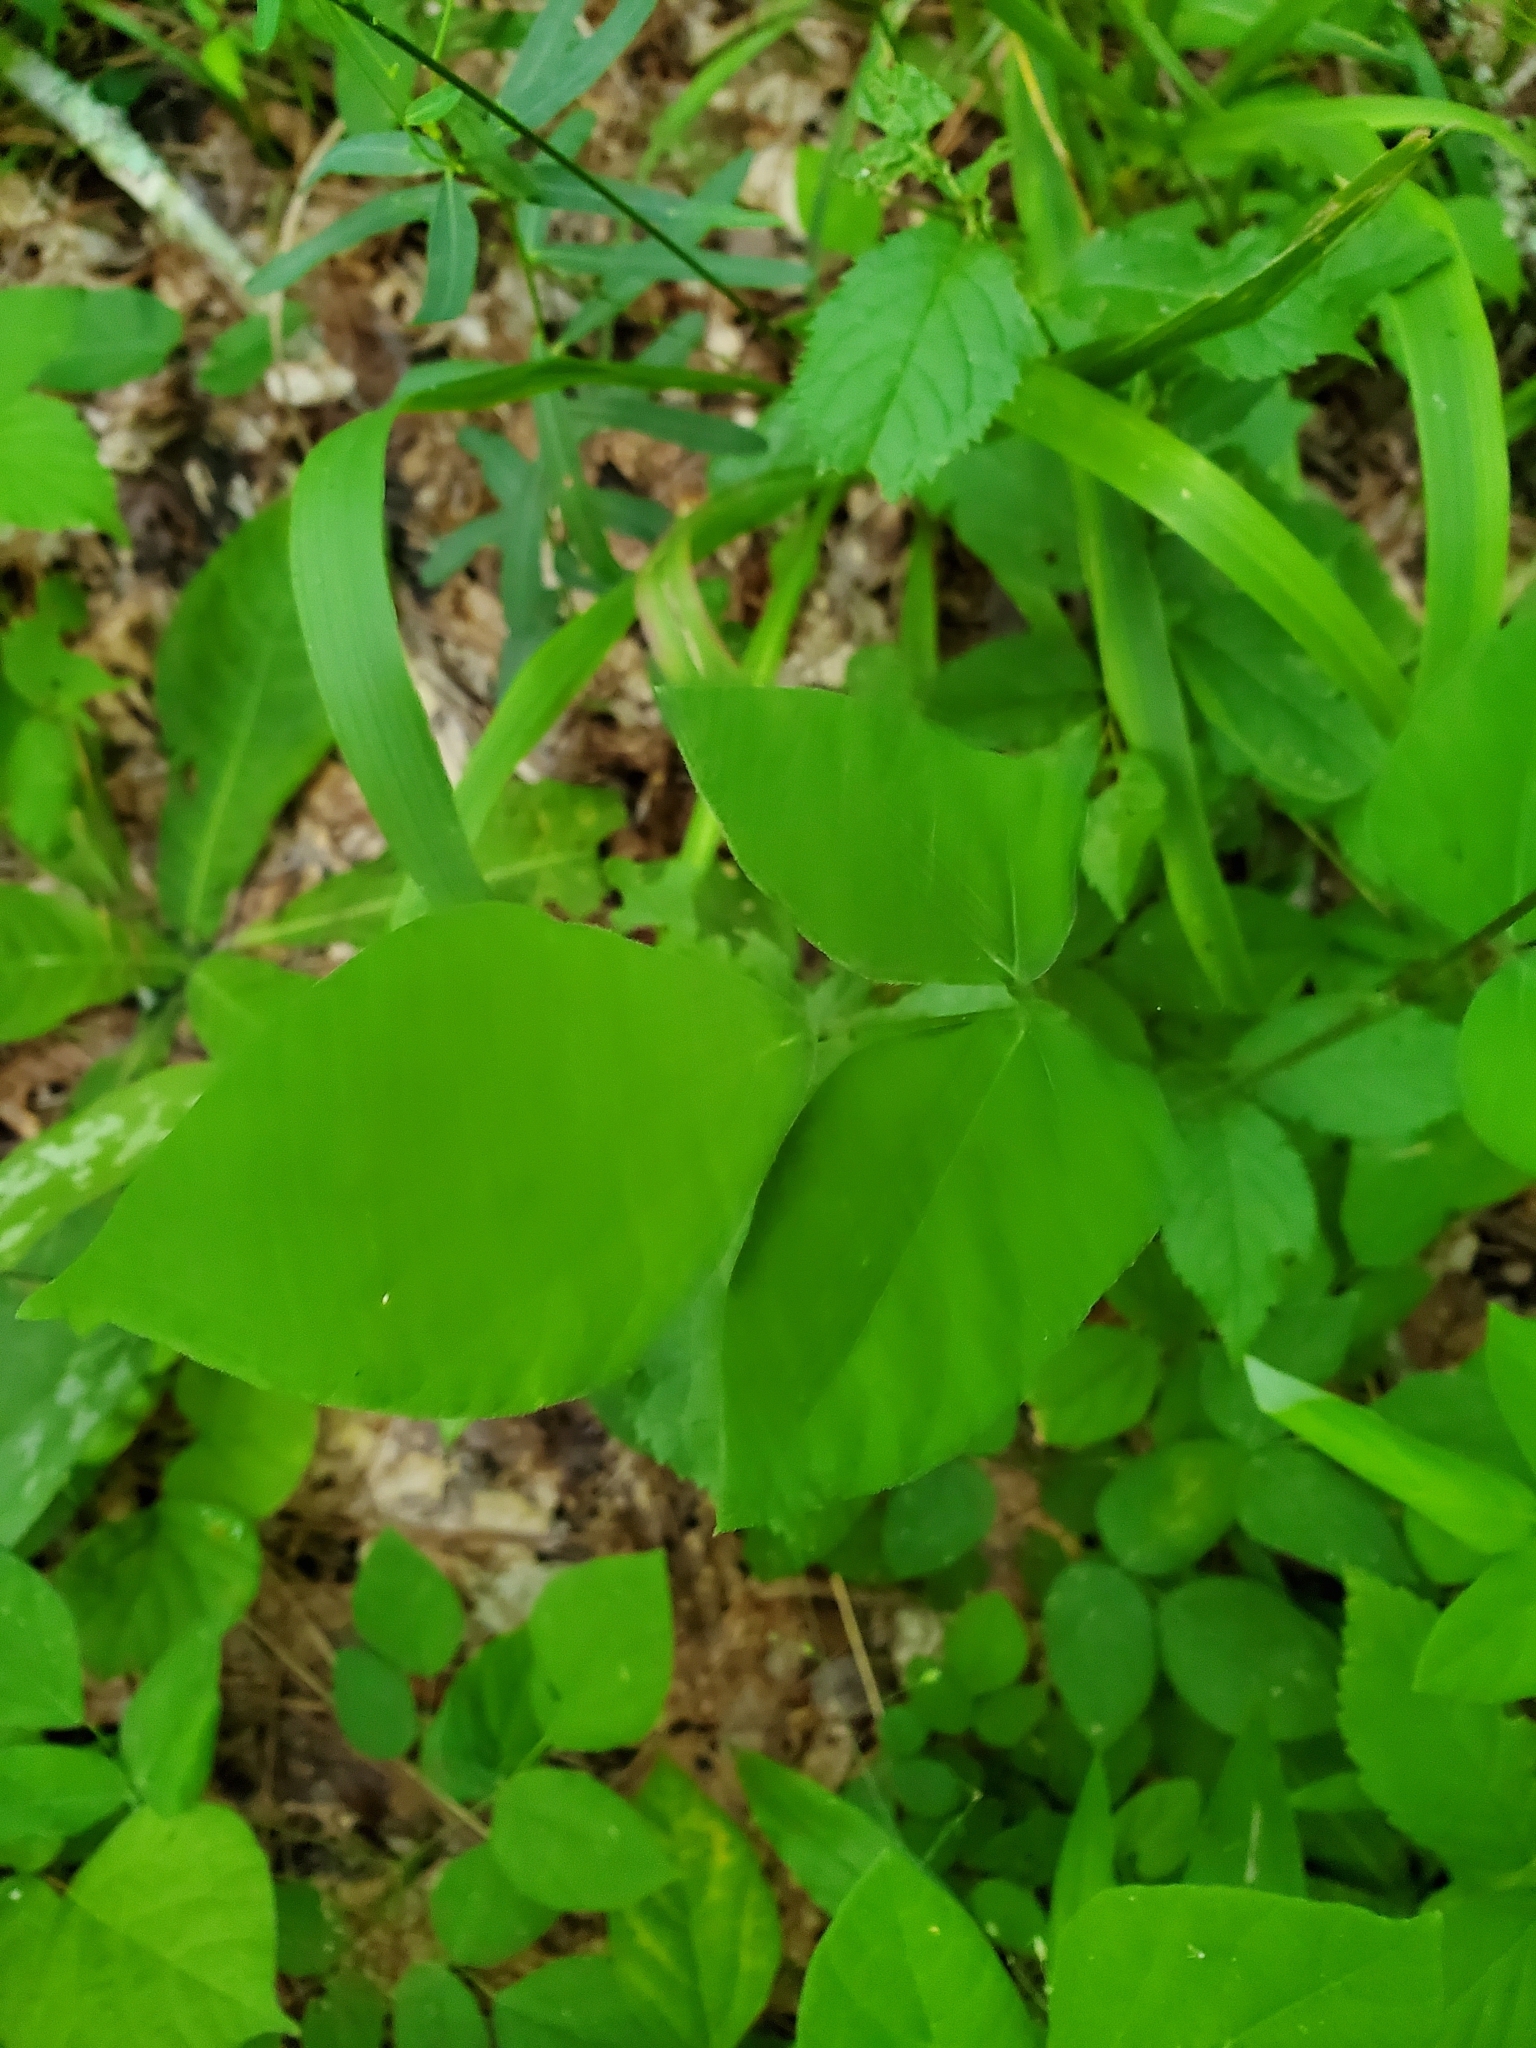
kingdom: Plantae
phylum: Tracheophyta
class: Magnoliopsida
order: Fabales
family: Fabaceae
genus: Hylodesmum
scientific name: Hylodesmum nudiflorum
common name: Bare-stemmed tick-trefoil
